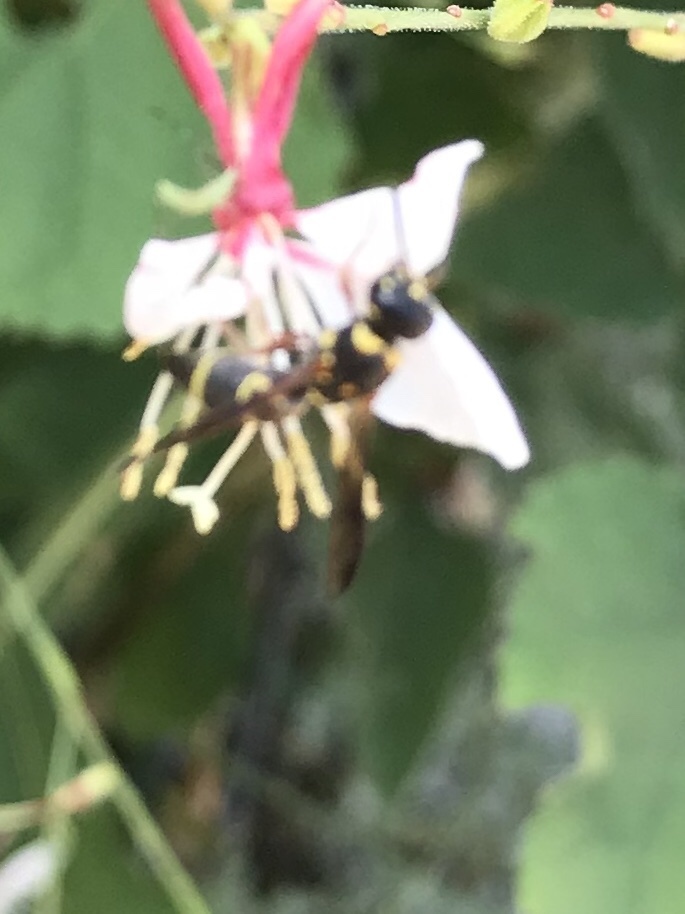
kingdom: Animalia
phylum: Arthropoda
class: Insecta
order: Hymenoptera
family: Eumenidae
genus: Parancistrocerus
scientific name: Parancistrocerus fulvipes
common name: Potter wasp
